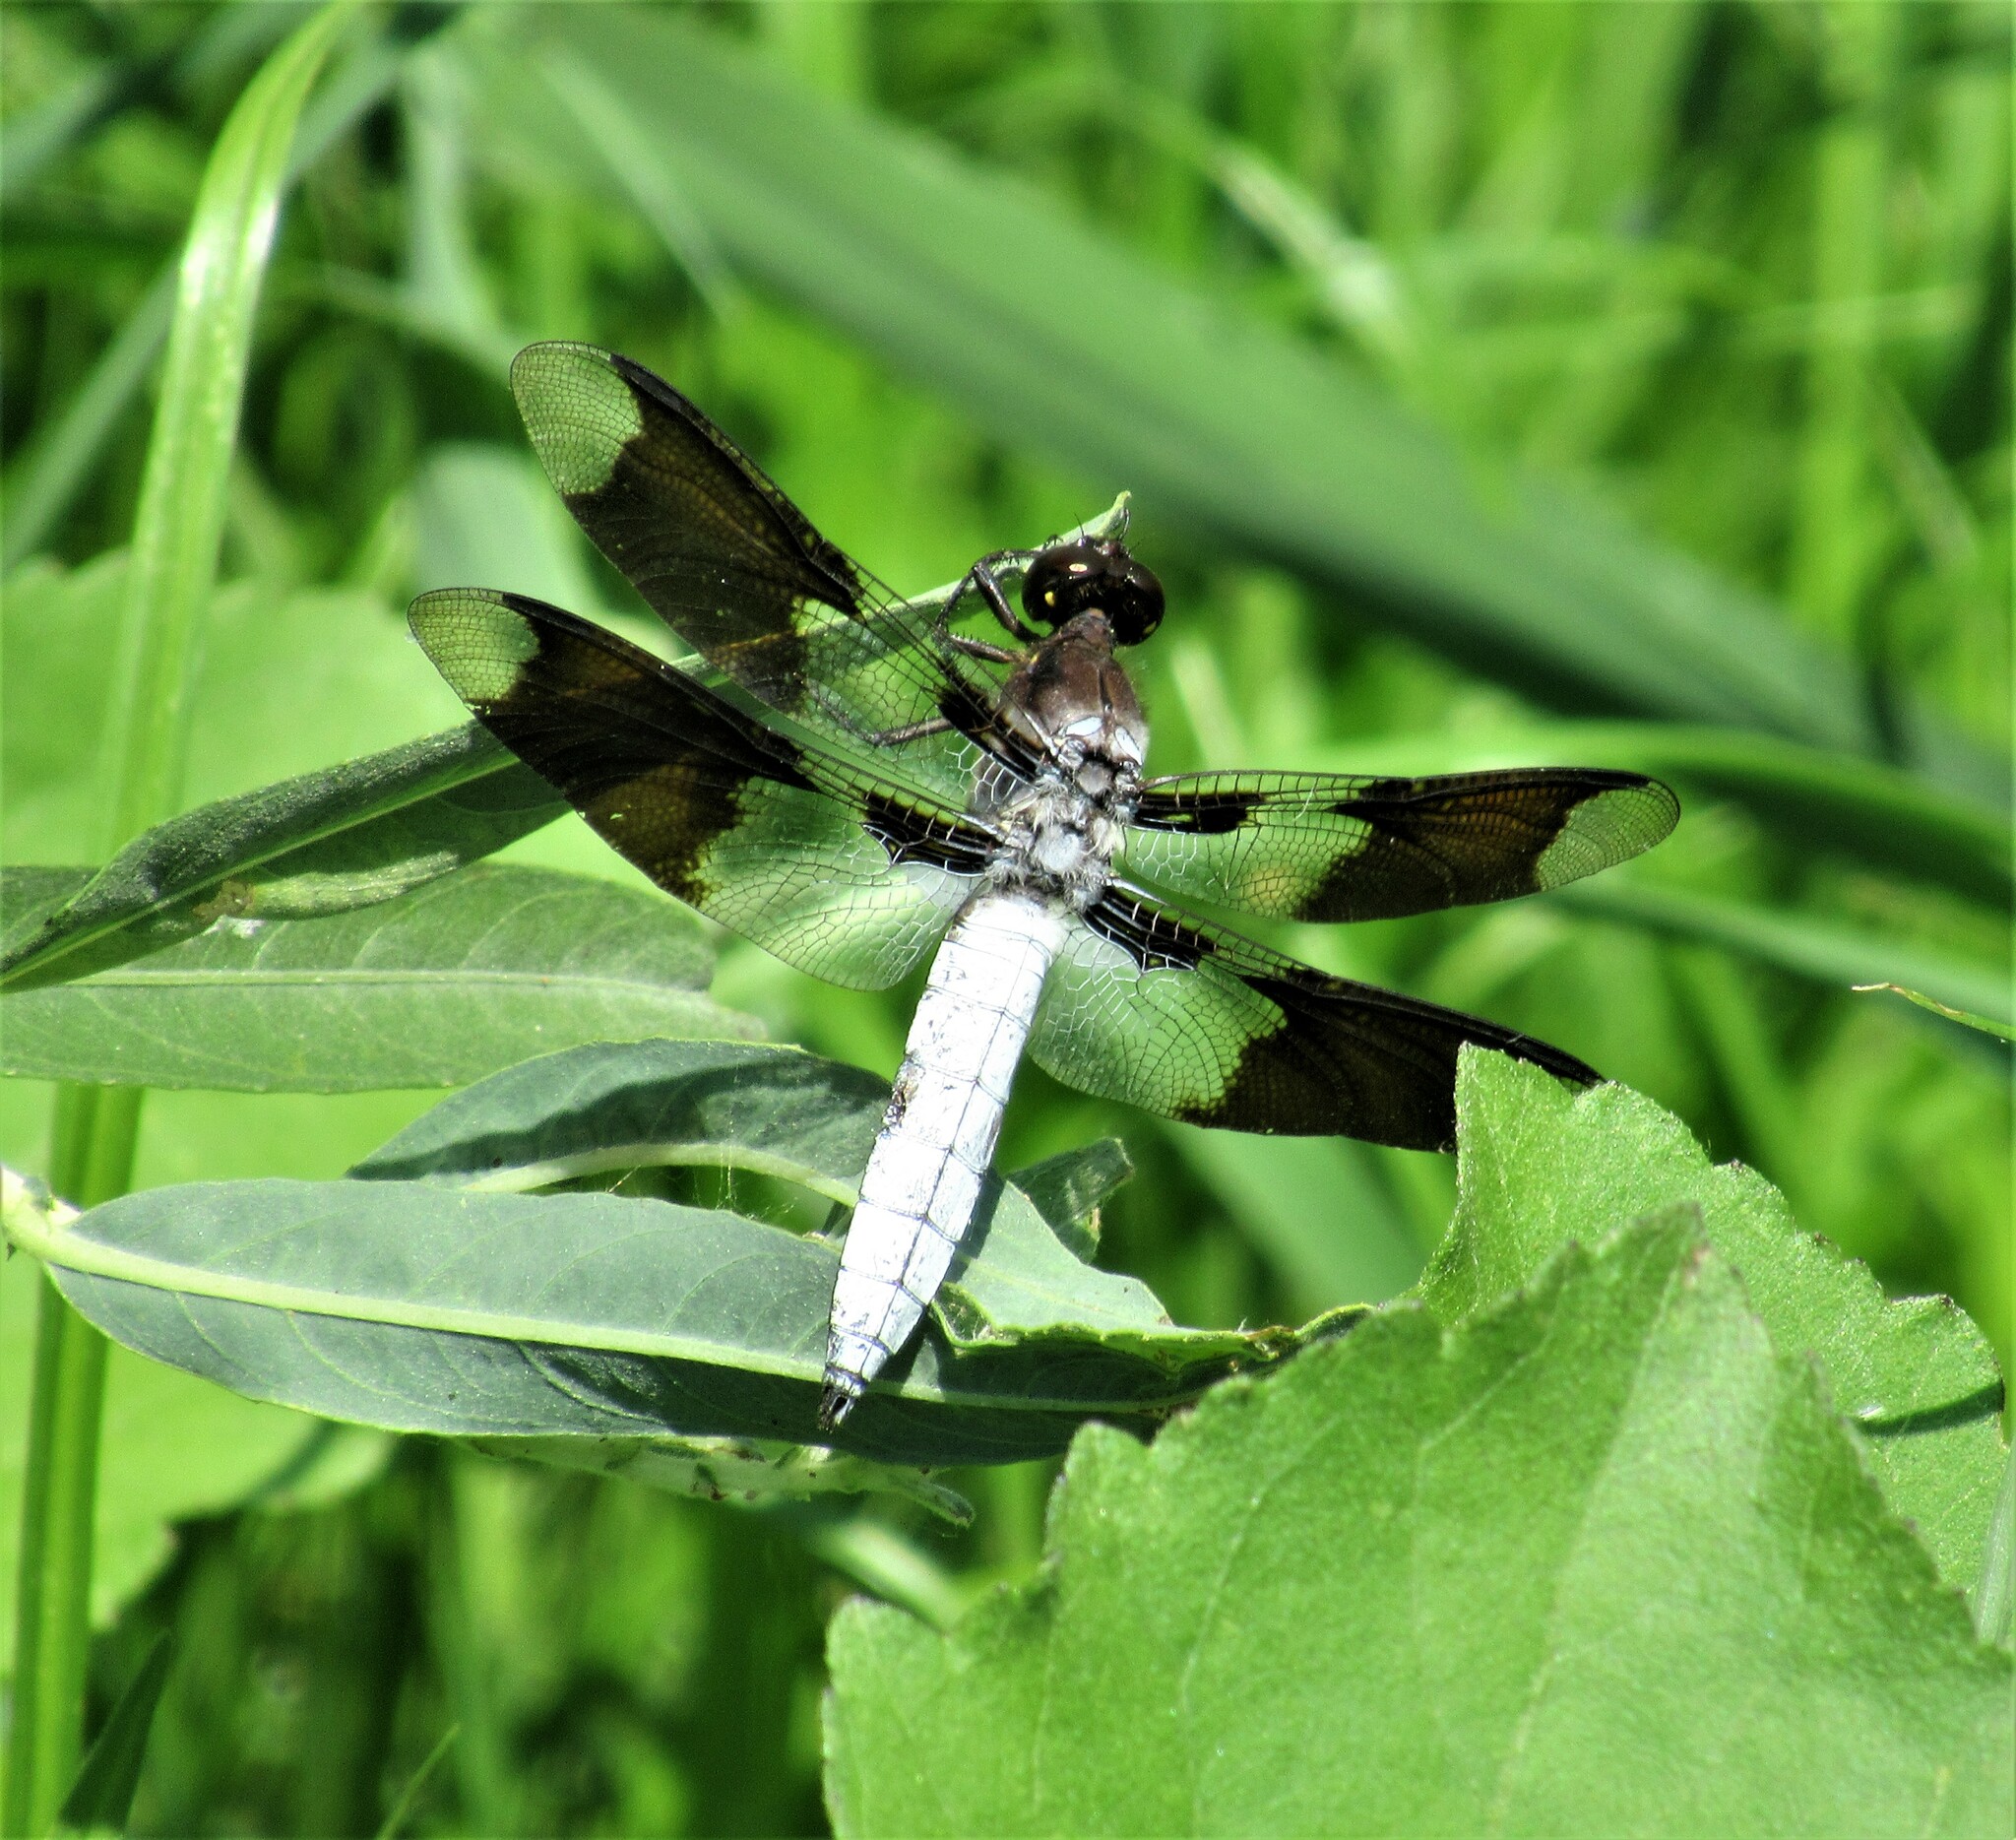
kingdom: Animalia
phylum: Arthropoda
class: Insecta
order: Odonata
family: Libellulidae
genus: Plathemis
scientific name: Plathemis lydia
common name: Common whitetail
